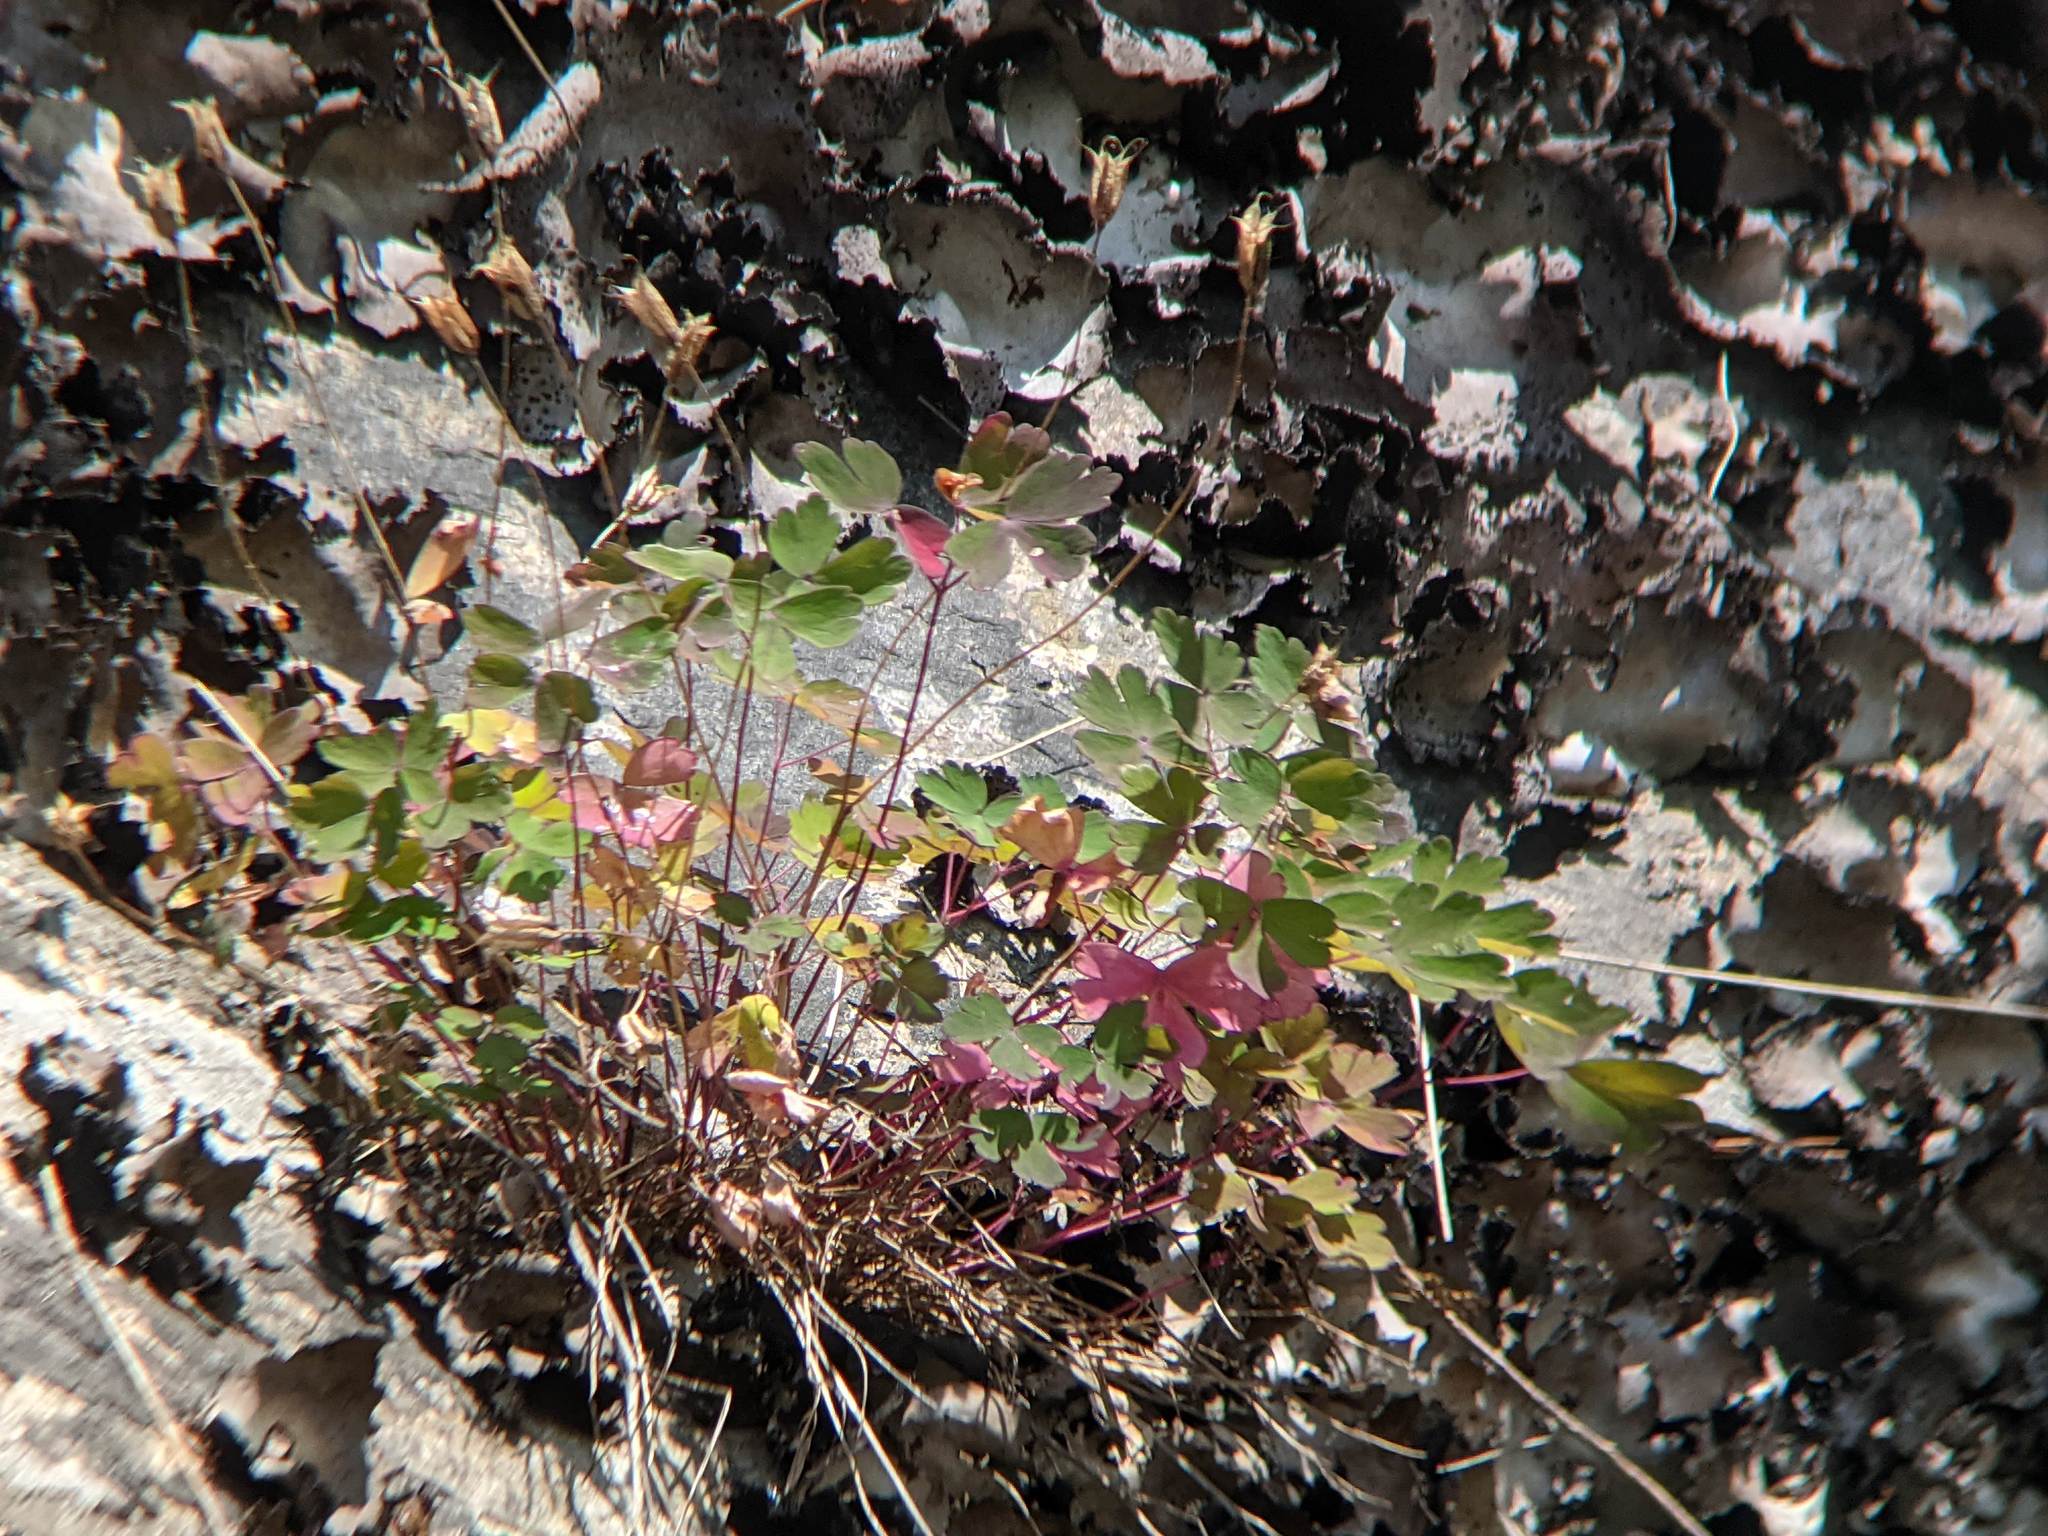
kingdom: Plantae
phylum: Tracheophyta
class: Magnoliopsida
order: Ranunculales
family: Ranunculaceae
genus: Aquilegia
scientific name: Aquilegia canadensis
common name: American columbine
